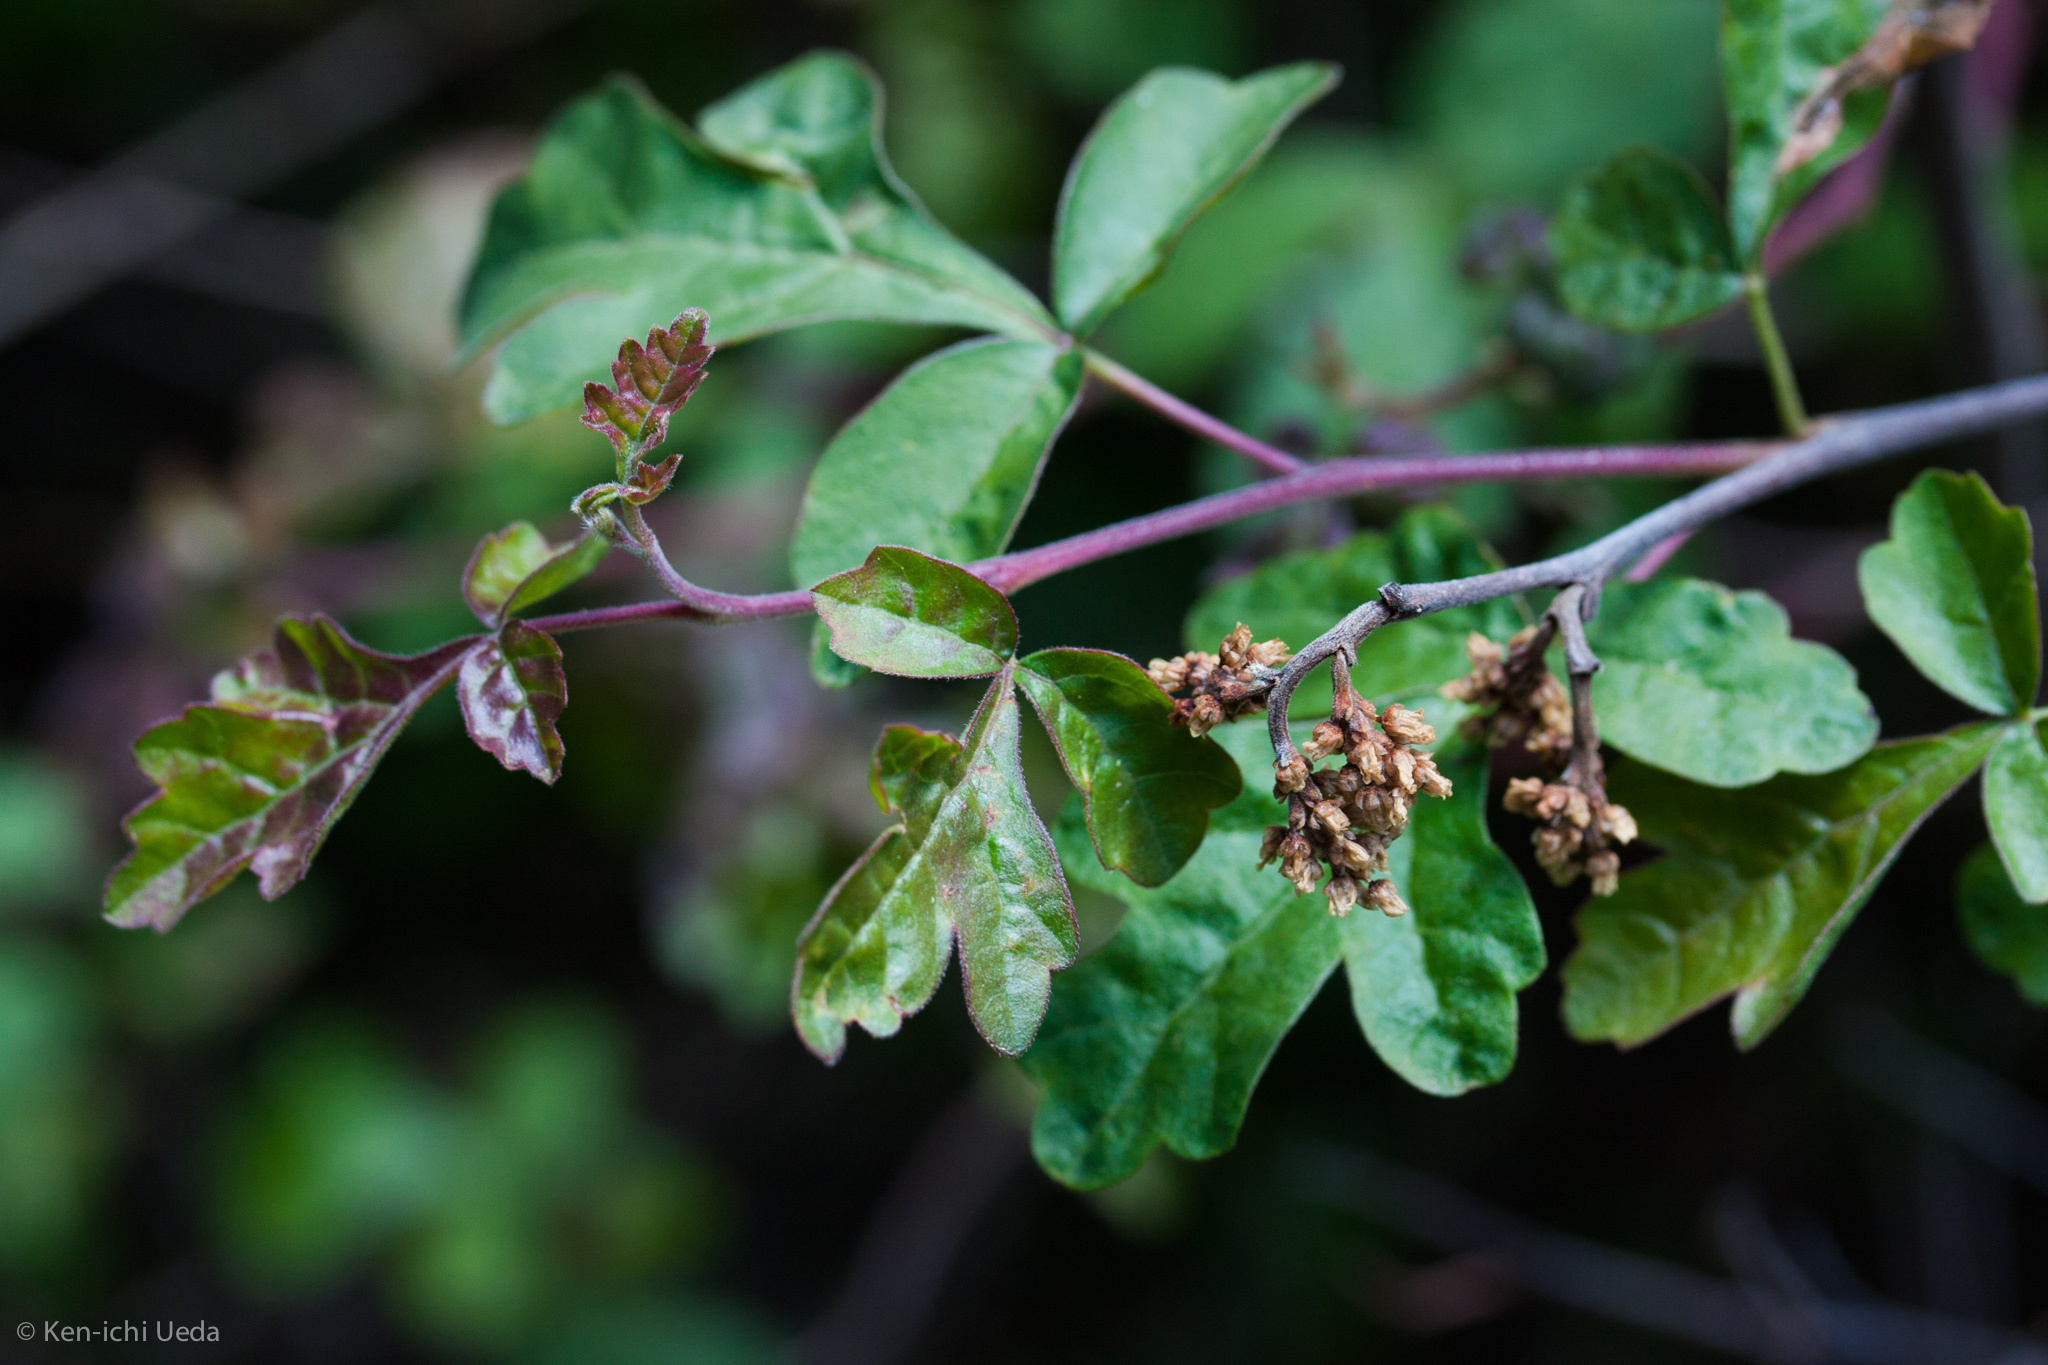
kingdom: Plantae
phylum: Tracheophyta
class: Magnoliopsida
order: Sapindales
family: Anacardiaceae
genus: Rhus
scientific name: Rhus aromatica
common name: Aromatic sumac
